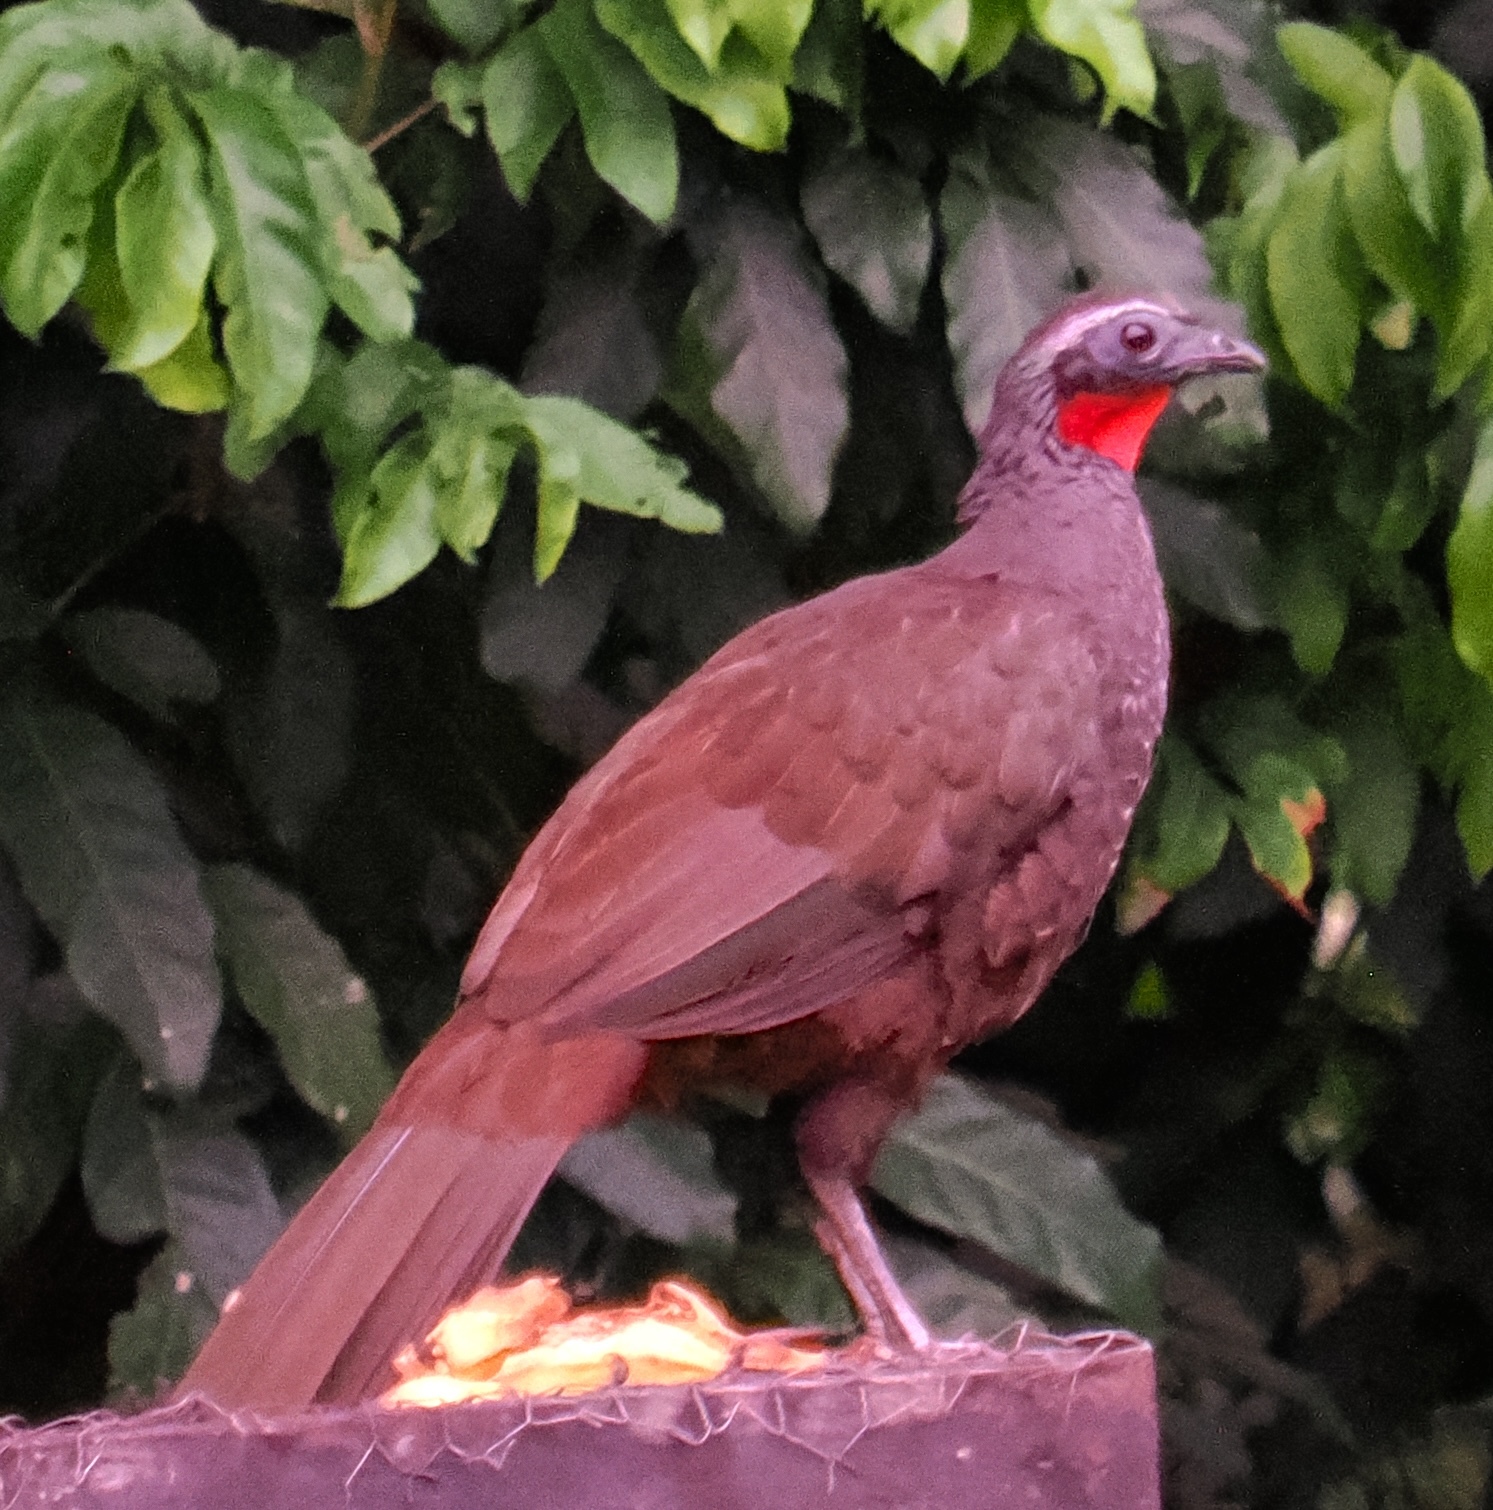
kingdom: Animalia
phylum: Chordata
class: Aves
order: Galliformes
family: Cracidae
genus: Penelope
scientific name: Penelope superciliaris
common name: Rusty-margined guan
